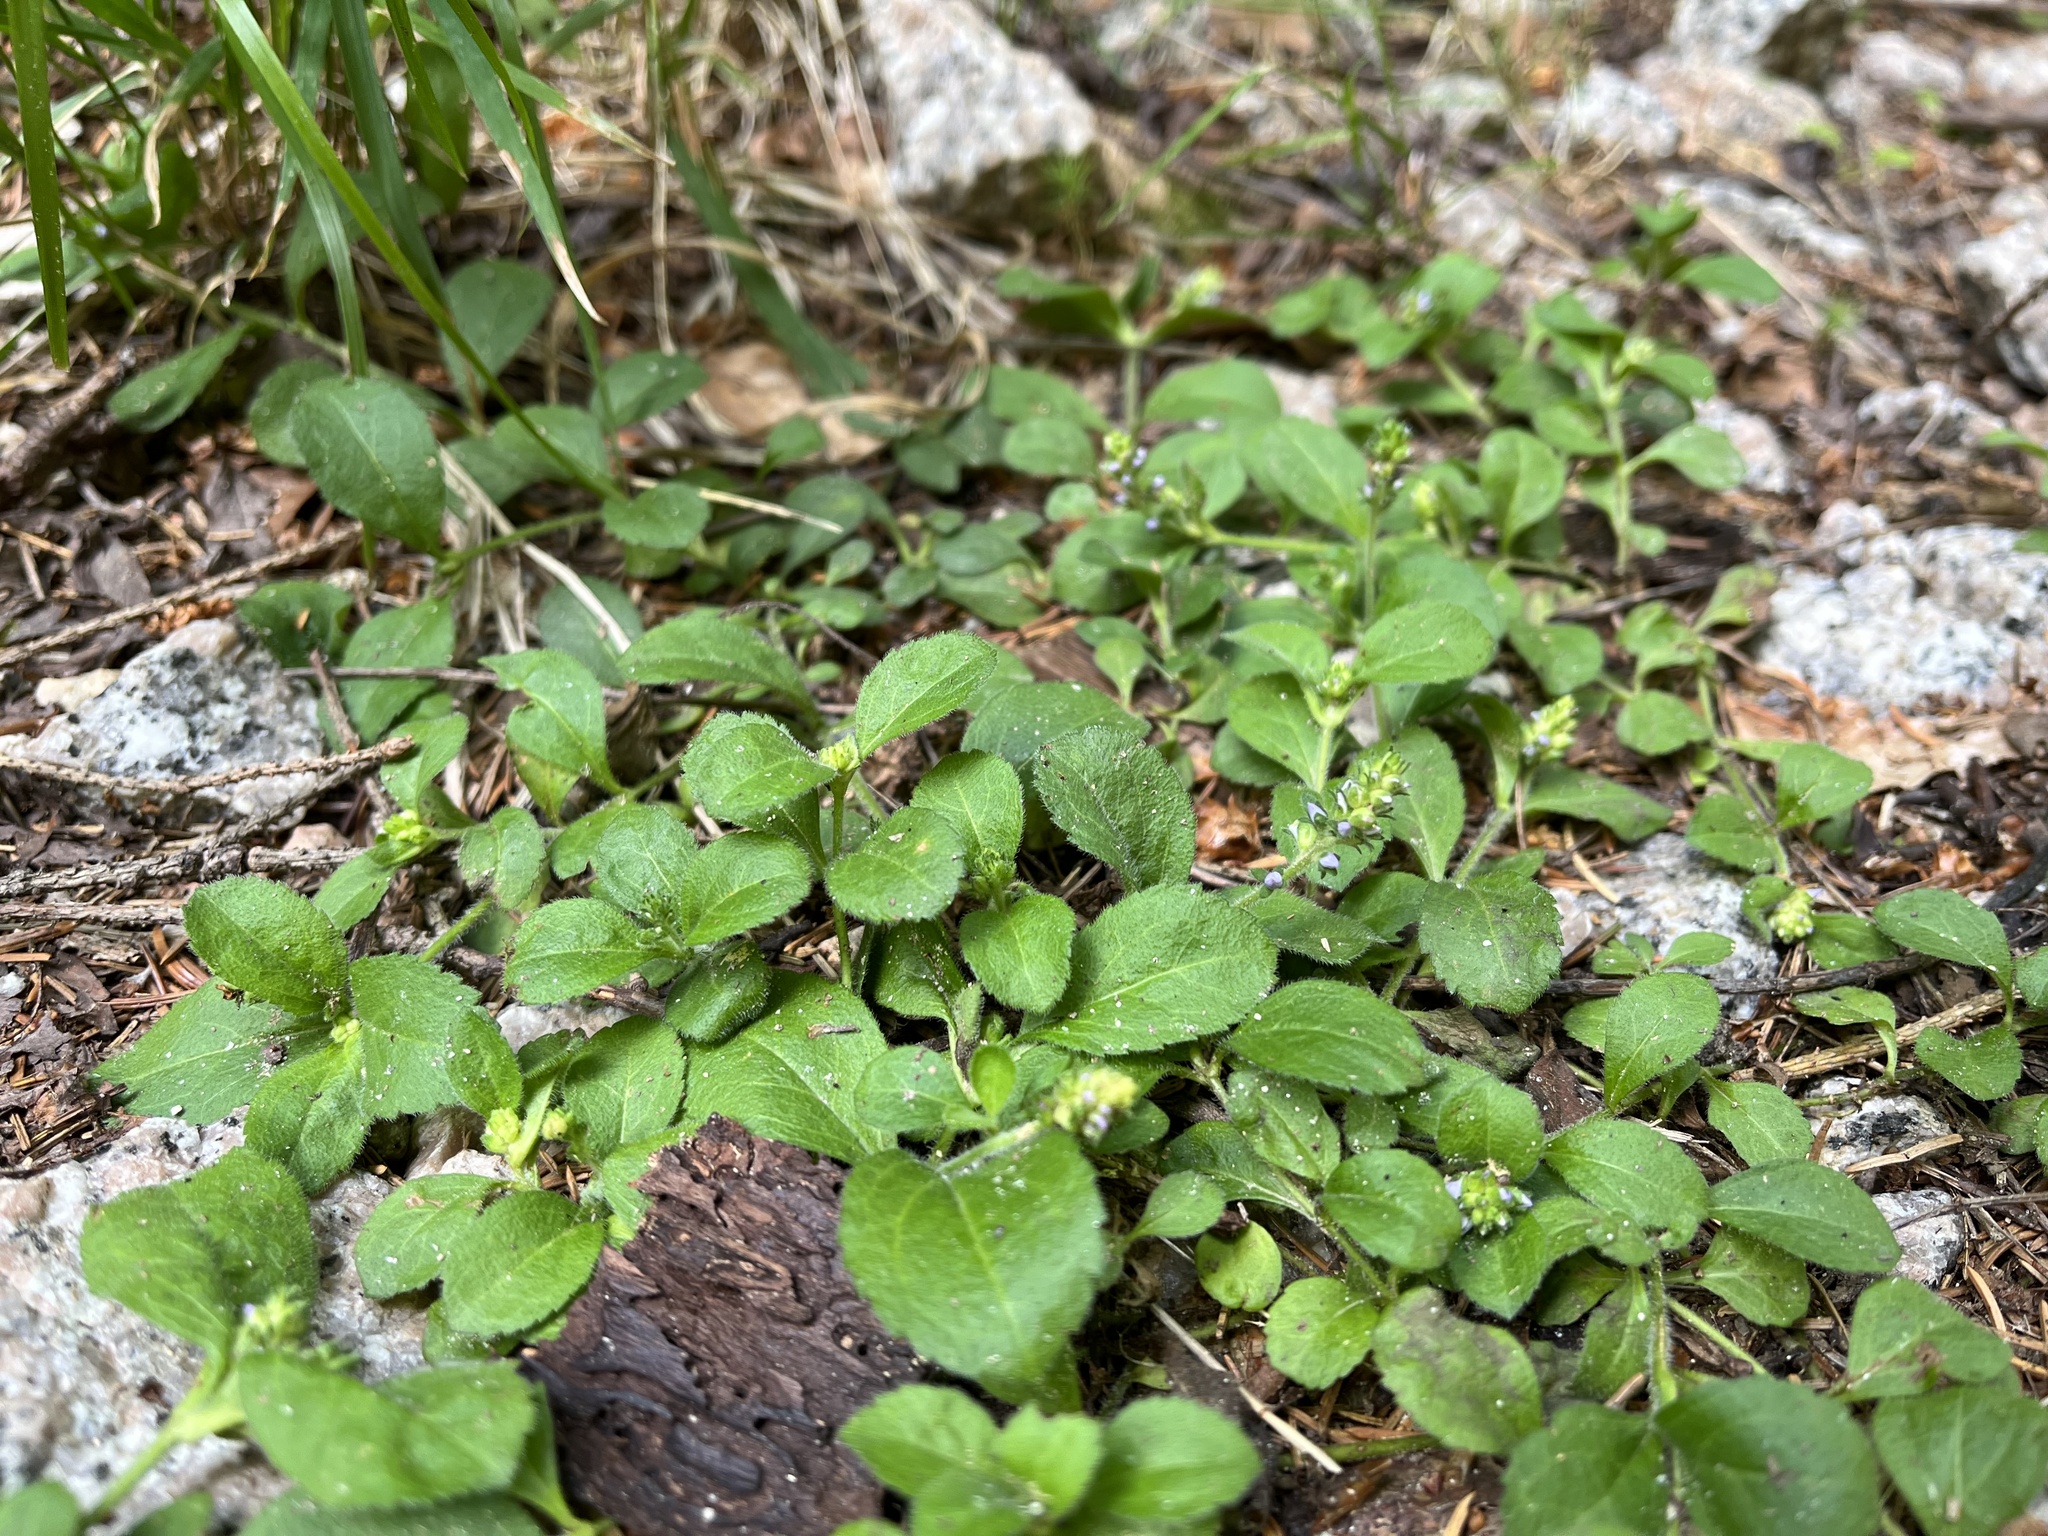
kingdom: Plantae
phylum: Tracheophyta
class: Magnoliopsida
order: Lamiales
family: Plantaginaceae
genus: Veronica
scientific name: Veronica officinalis
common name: Common speedwell
